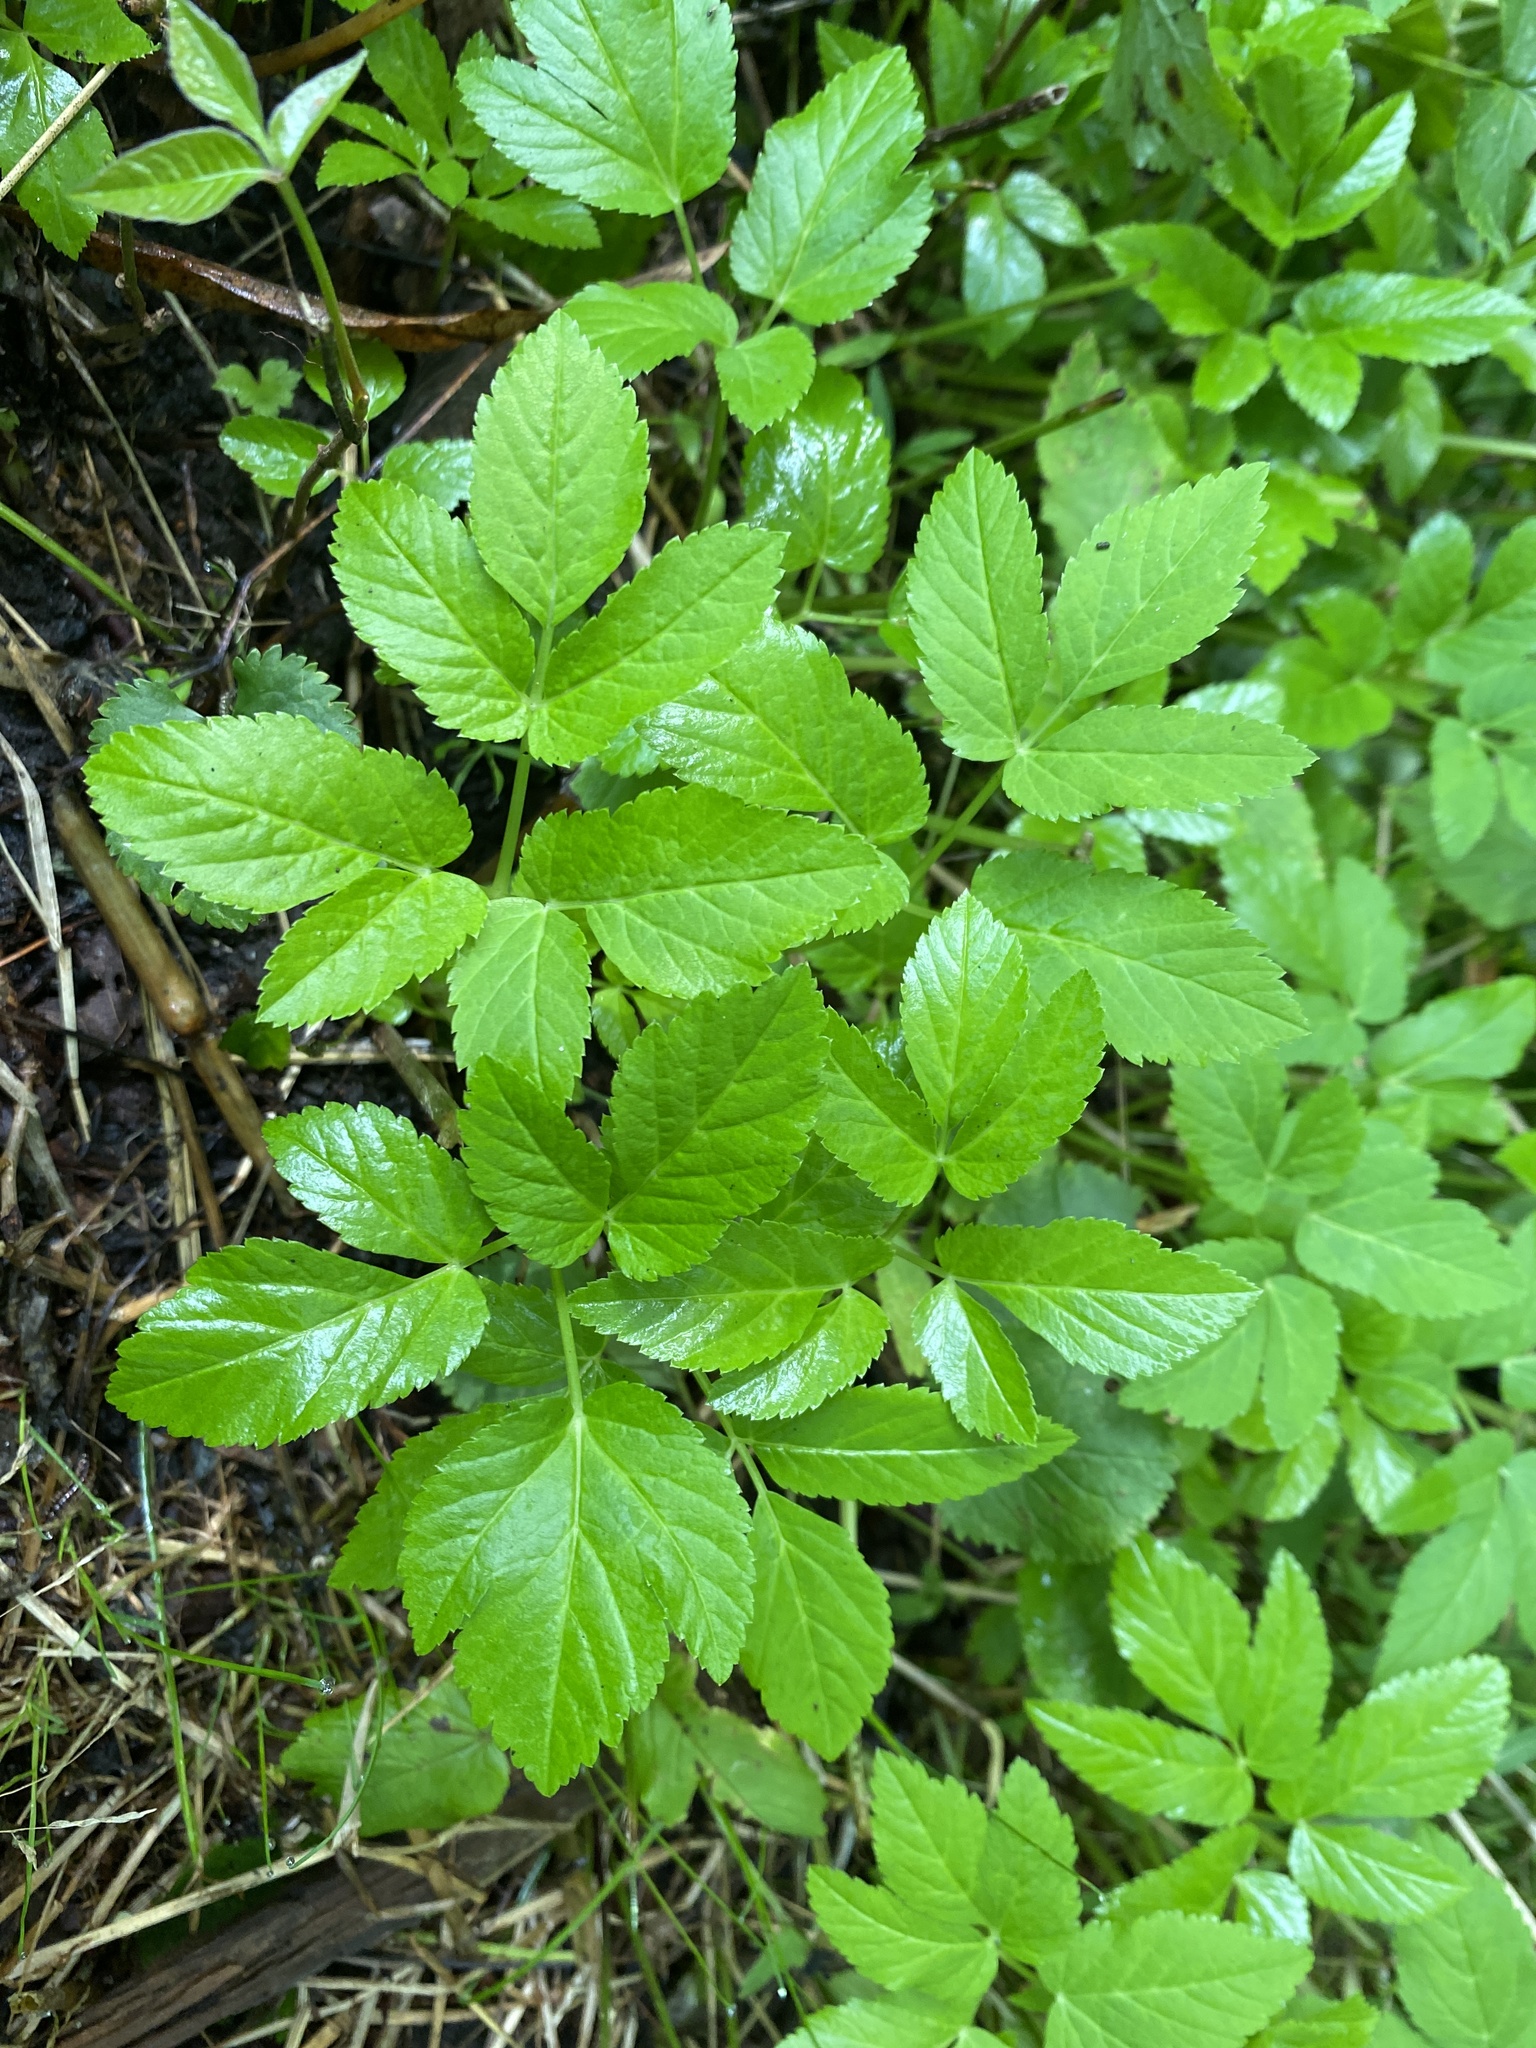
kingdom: Plantae
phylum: Tracheophyta
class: Magnoliopsida
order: Apiales
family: Apiaceae
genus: Aegopodium
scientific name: Aegopodium podagraria
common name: Ground-elder
